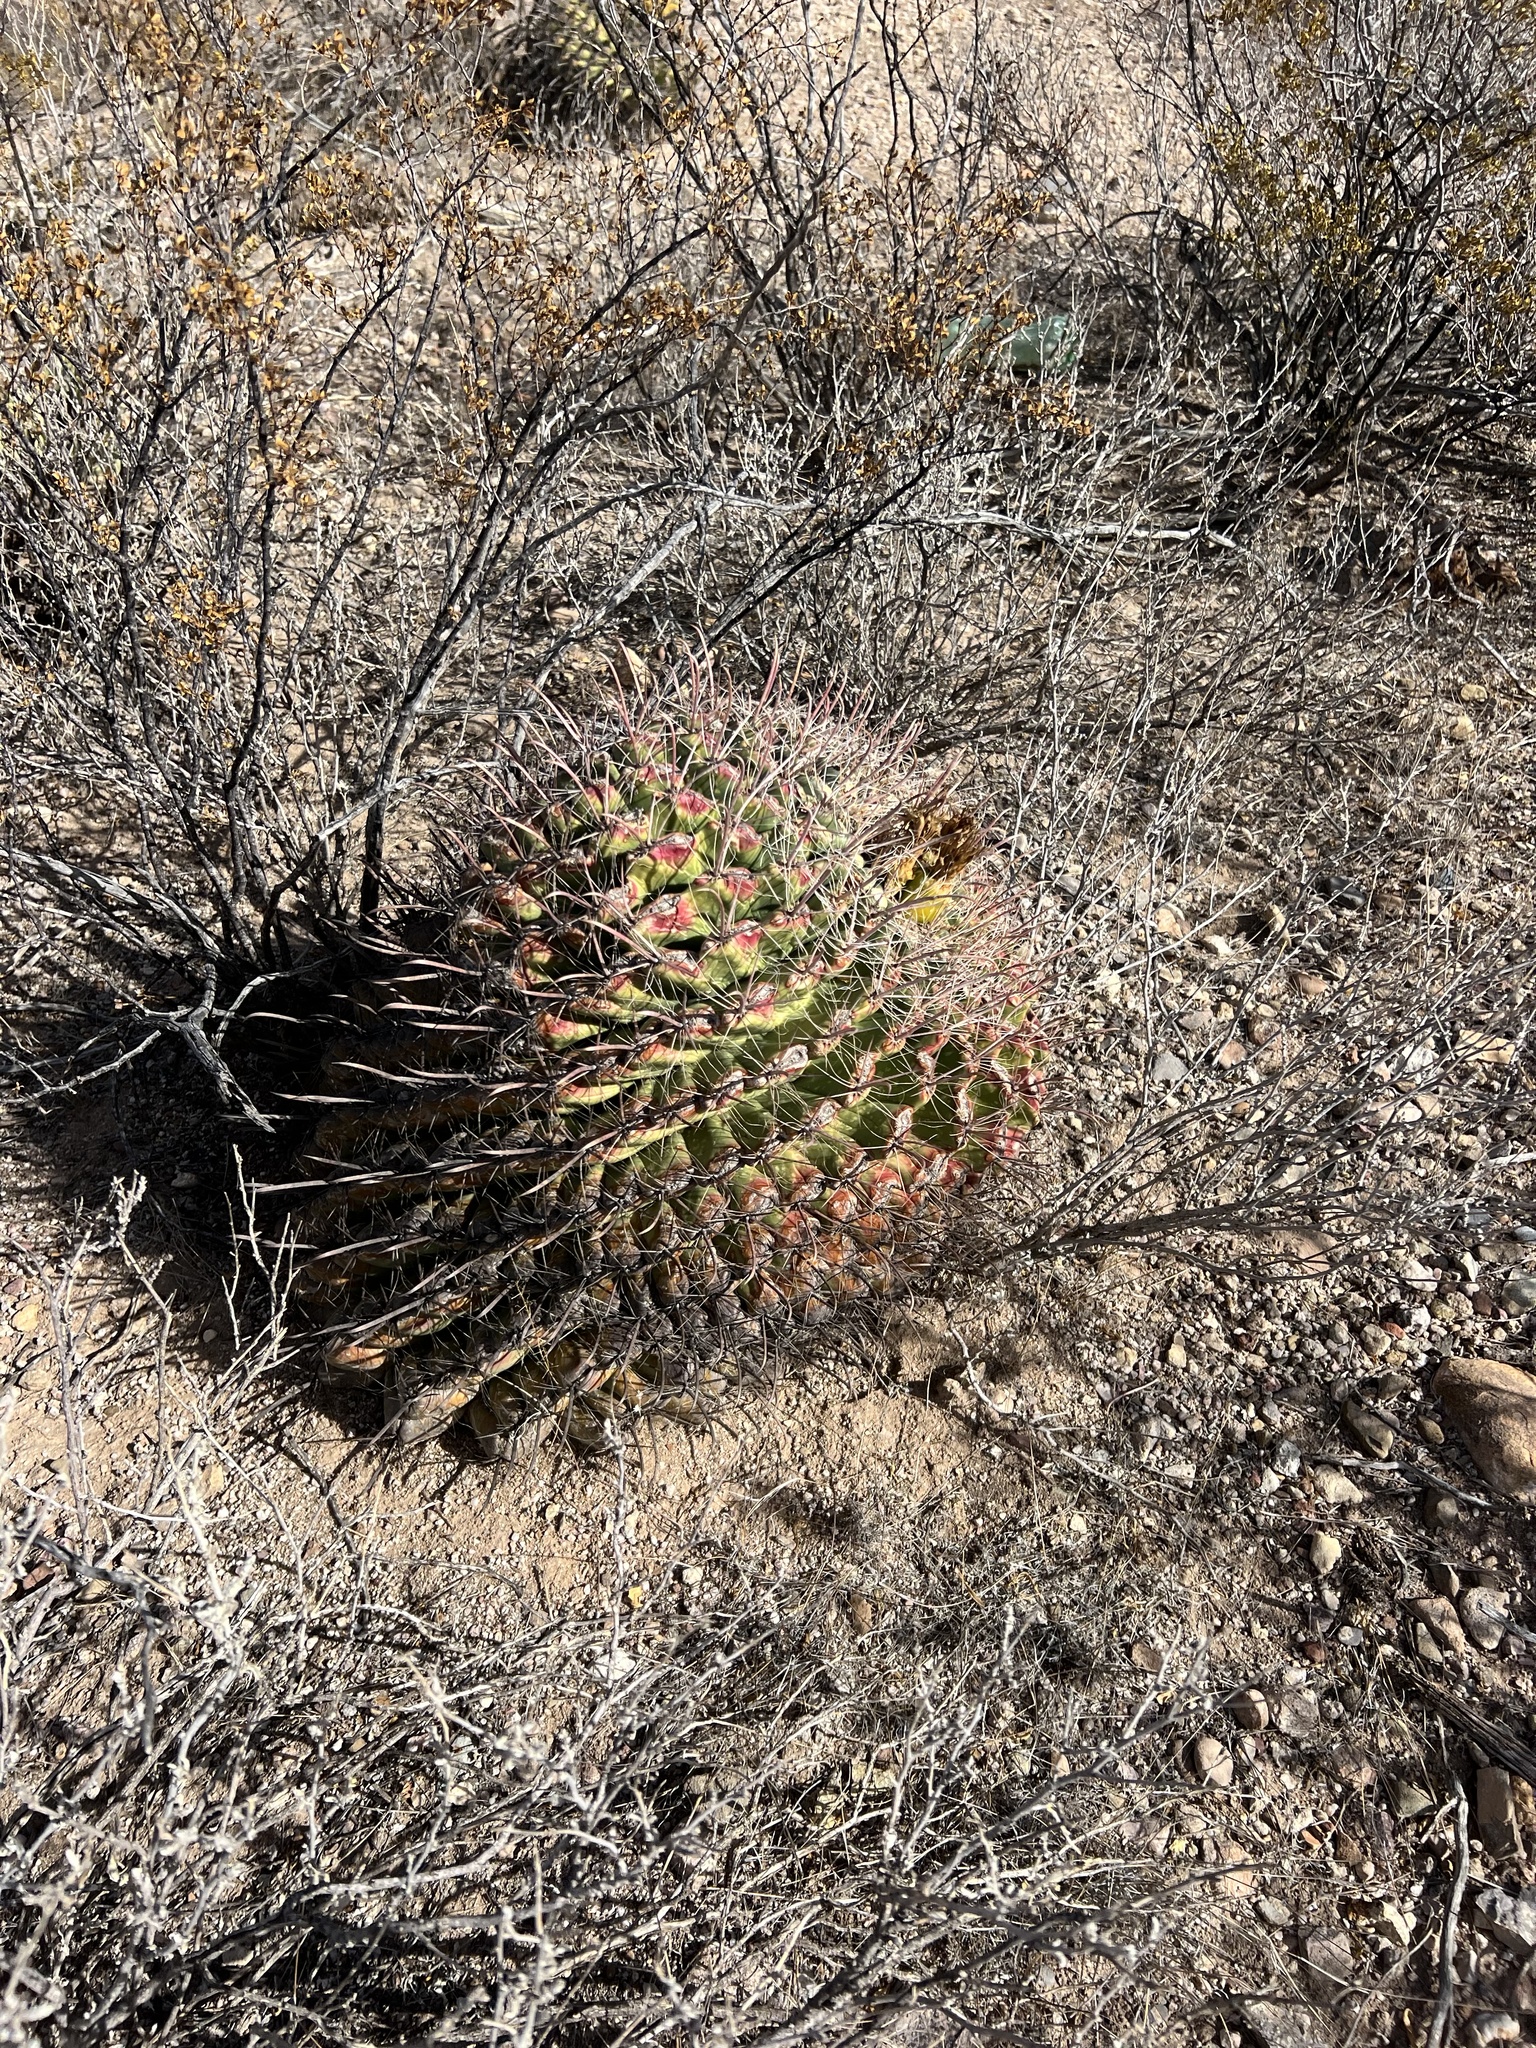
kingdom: Plantae
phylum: Tracheophyta
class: Magnoliopsida
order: Caryophyllales
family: Cactaceae
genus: Ferocactus
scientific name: Ferocactus wislizeni
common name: Candy barrel cactus
